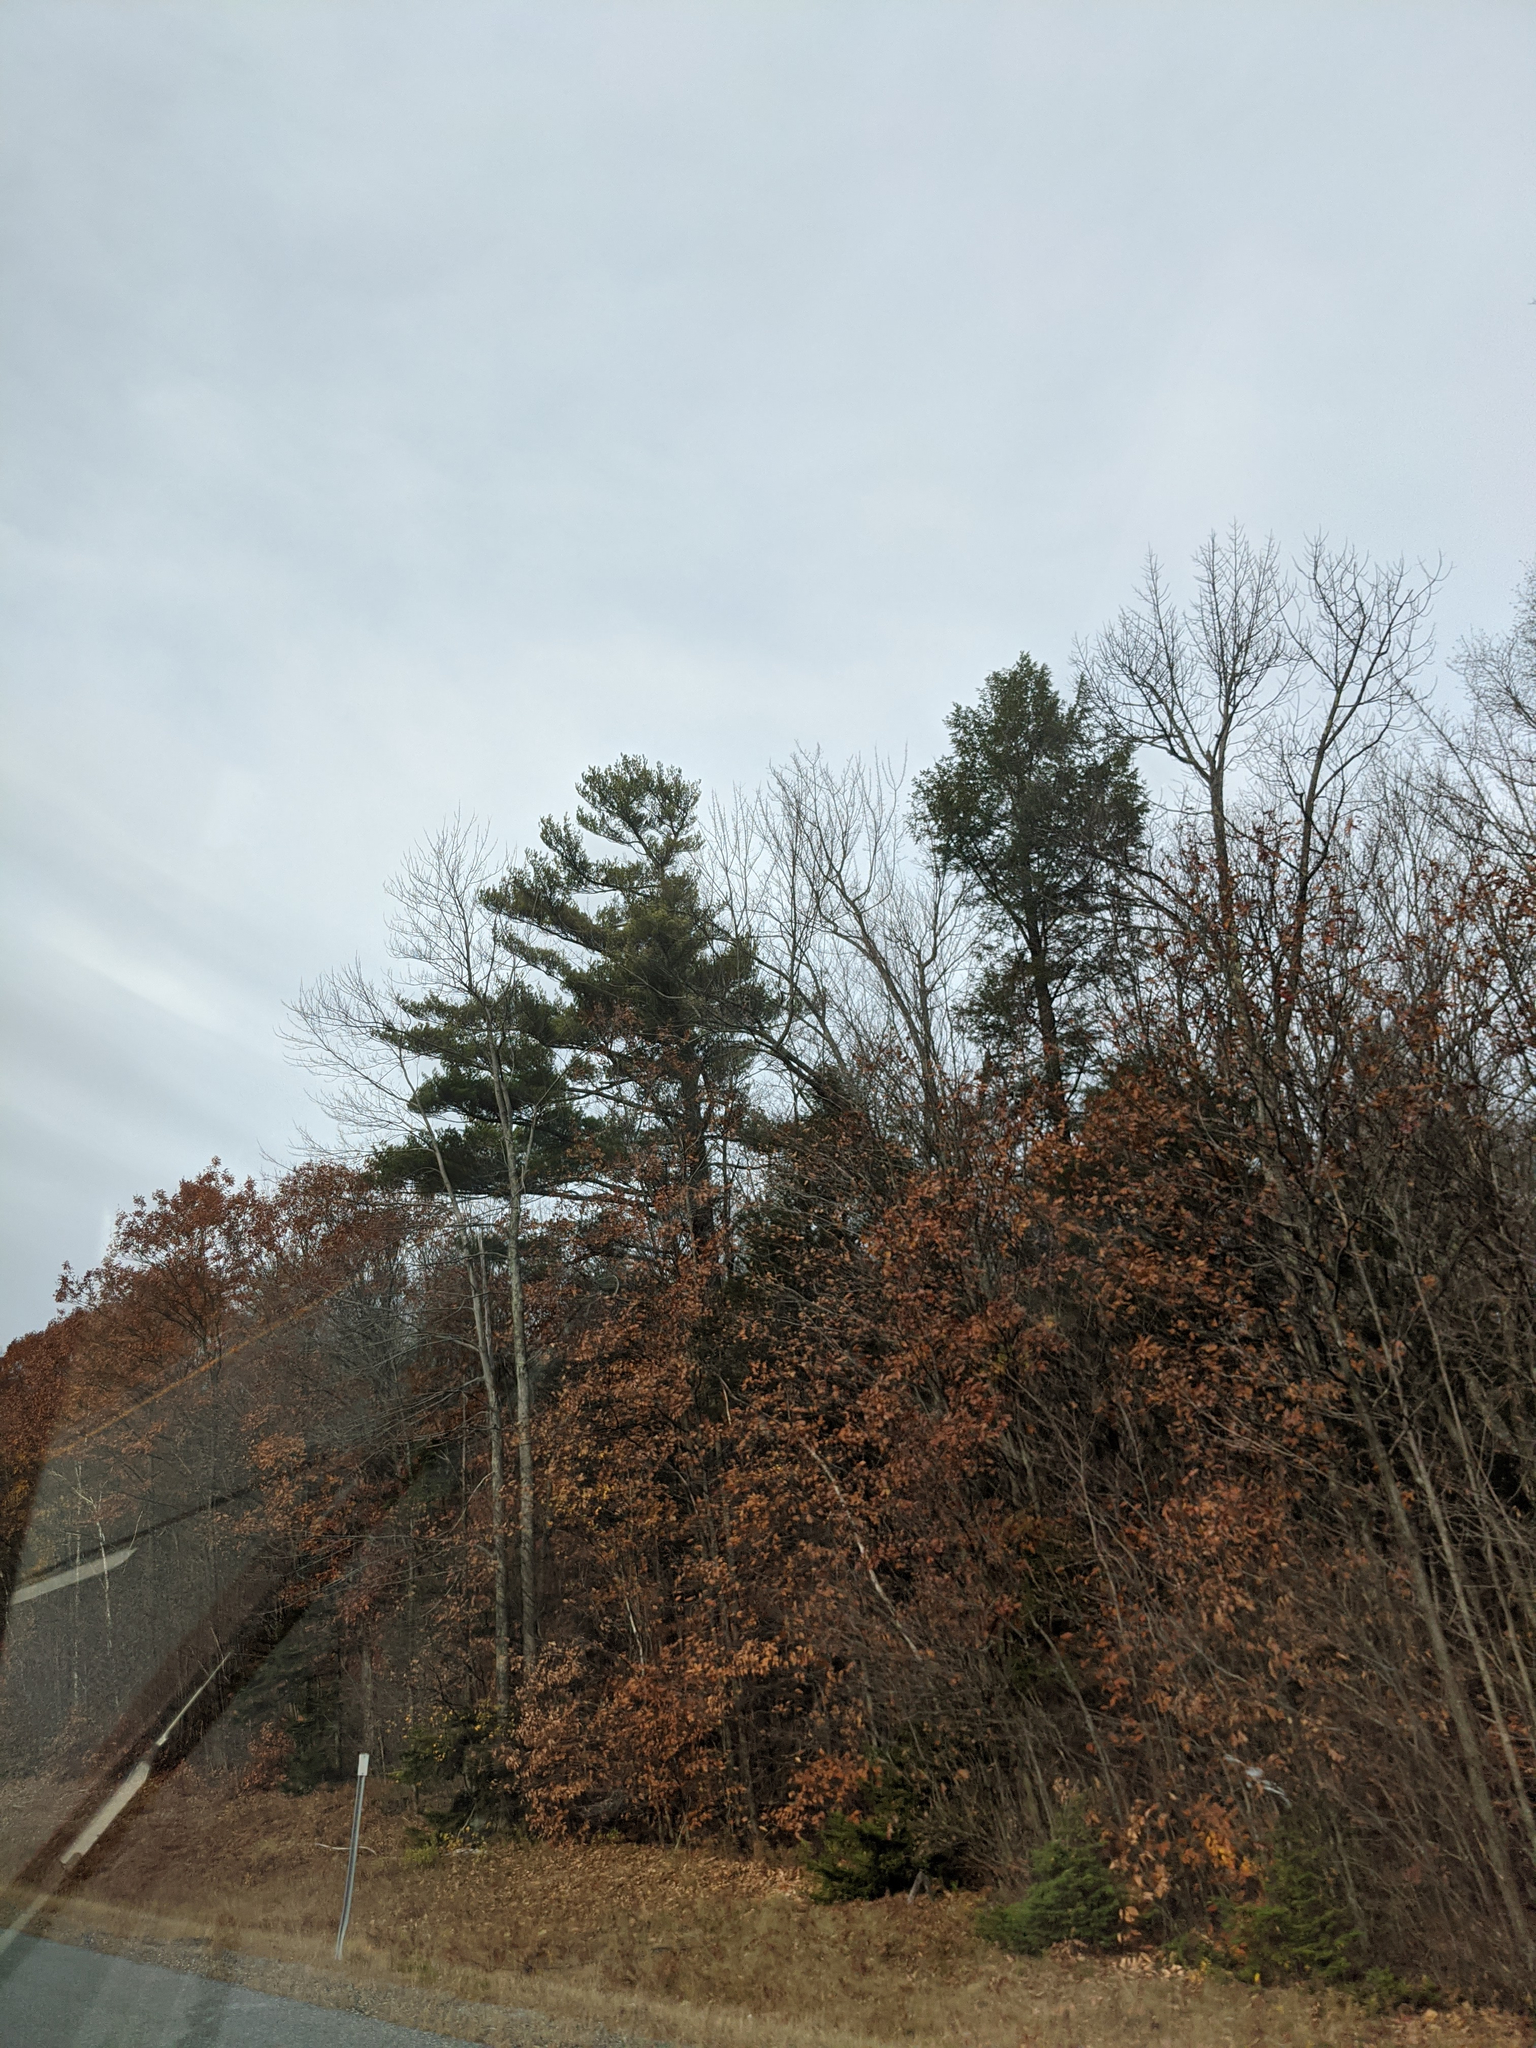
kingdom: Plantae
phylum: Tracheophyta
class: Pinopsida
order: Pinales
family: Pinaceae
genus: Pinus
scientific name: Pinus strobus
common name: Weymouth pine
